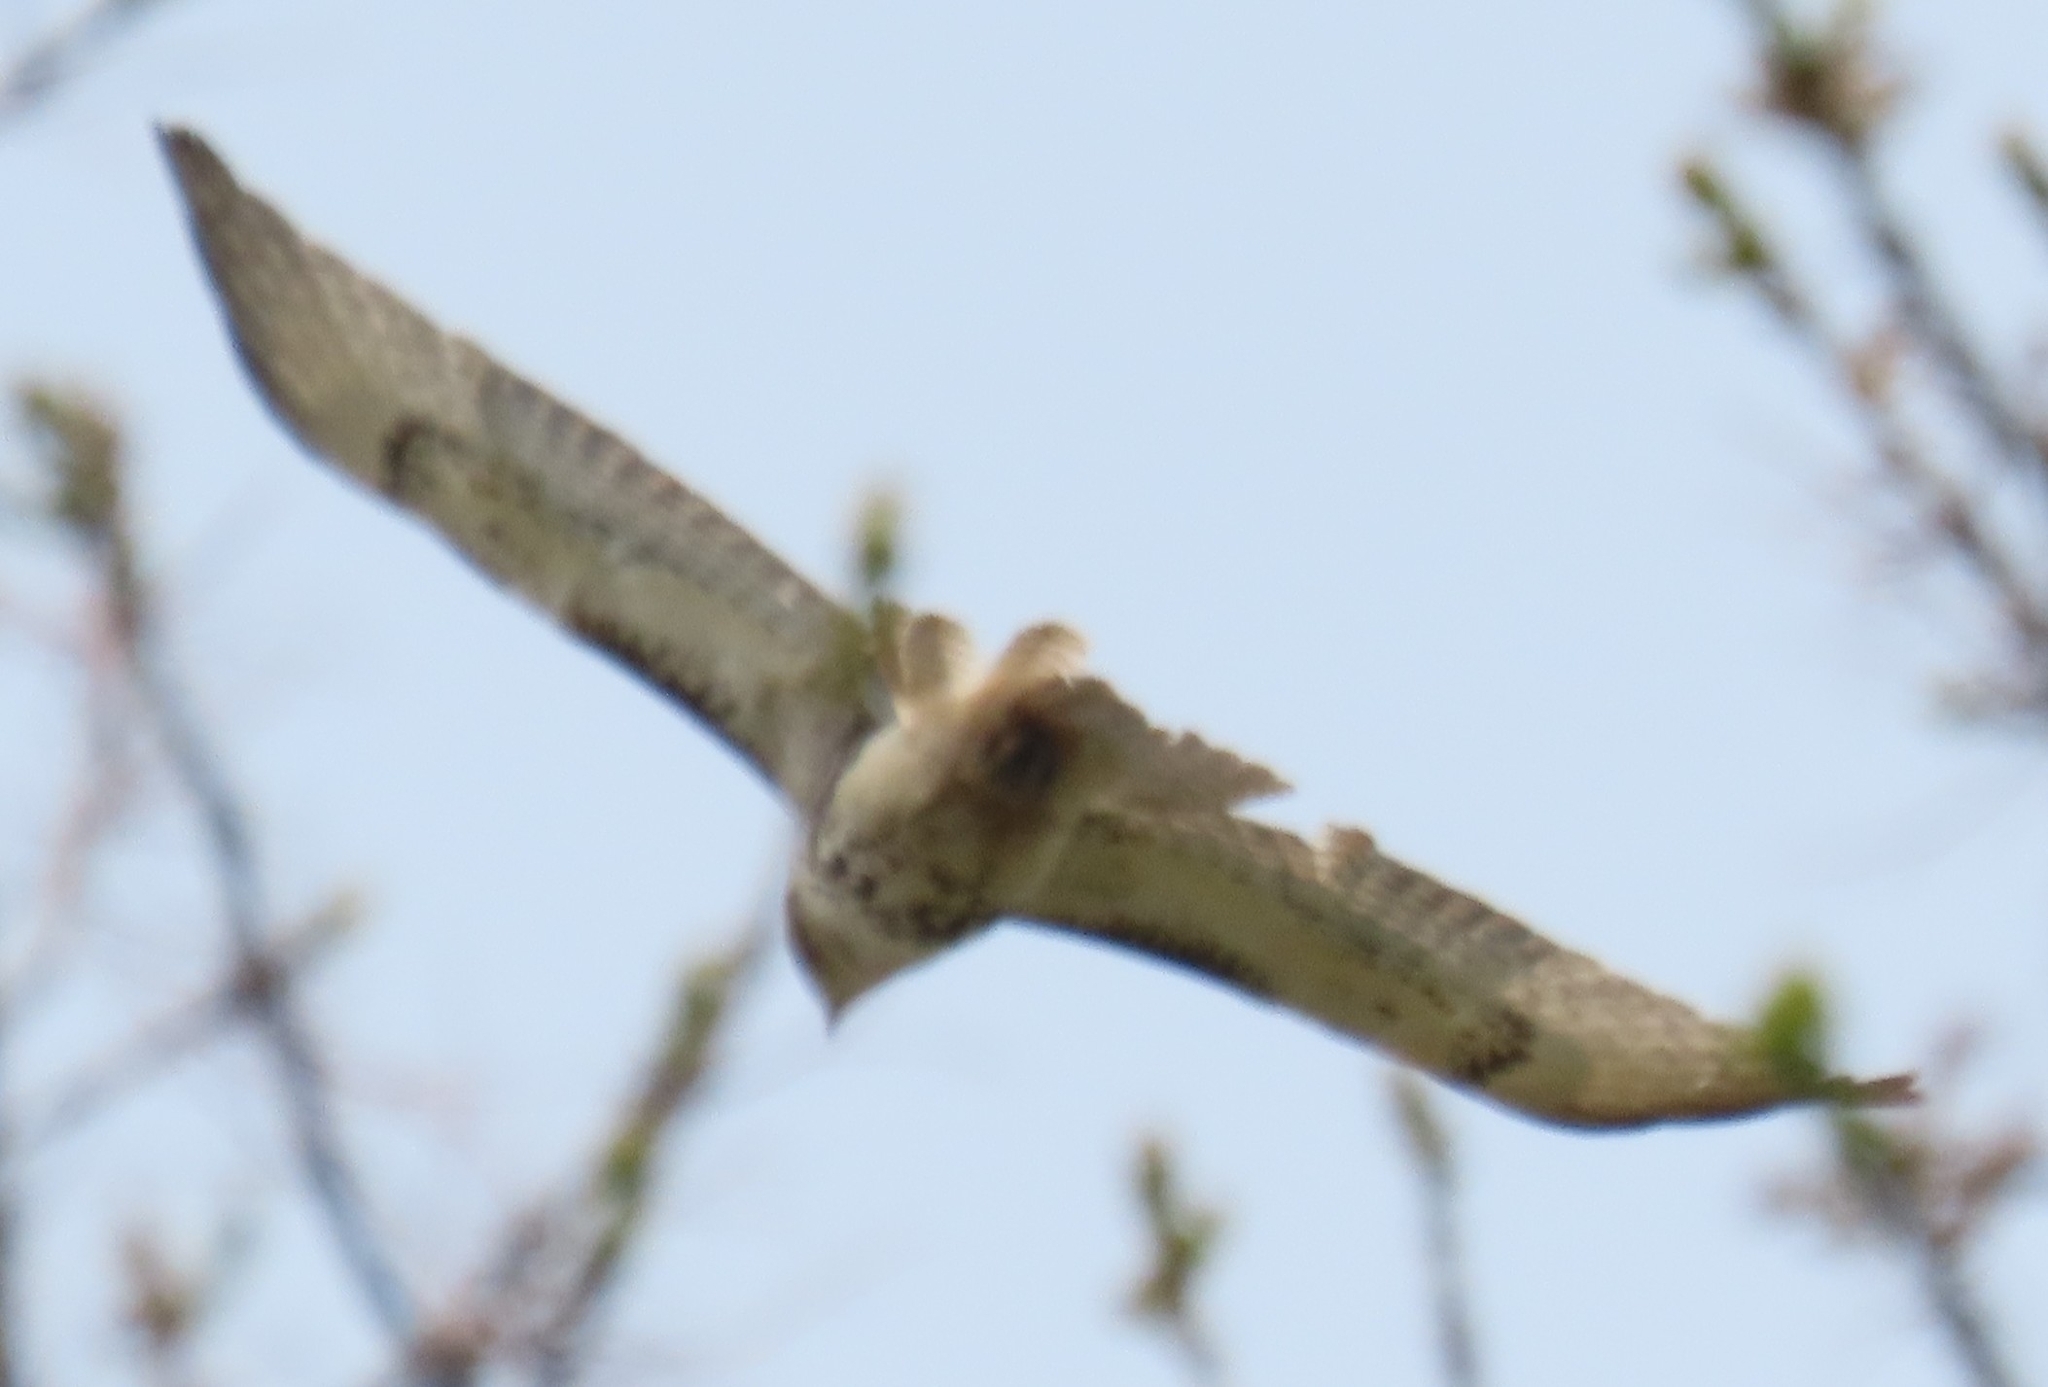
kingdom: Animalia
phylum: Chordata
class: Aves
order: Accipitriformes
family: Accipitridae
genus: Buteo
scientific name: Buteo jamaicensis
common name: Red-tailed hawk
